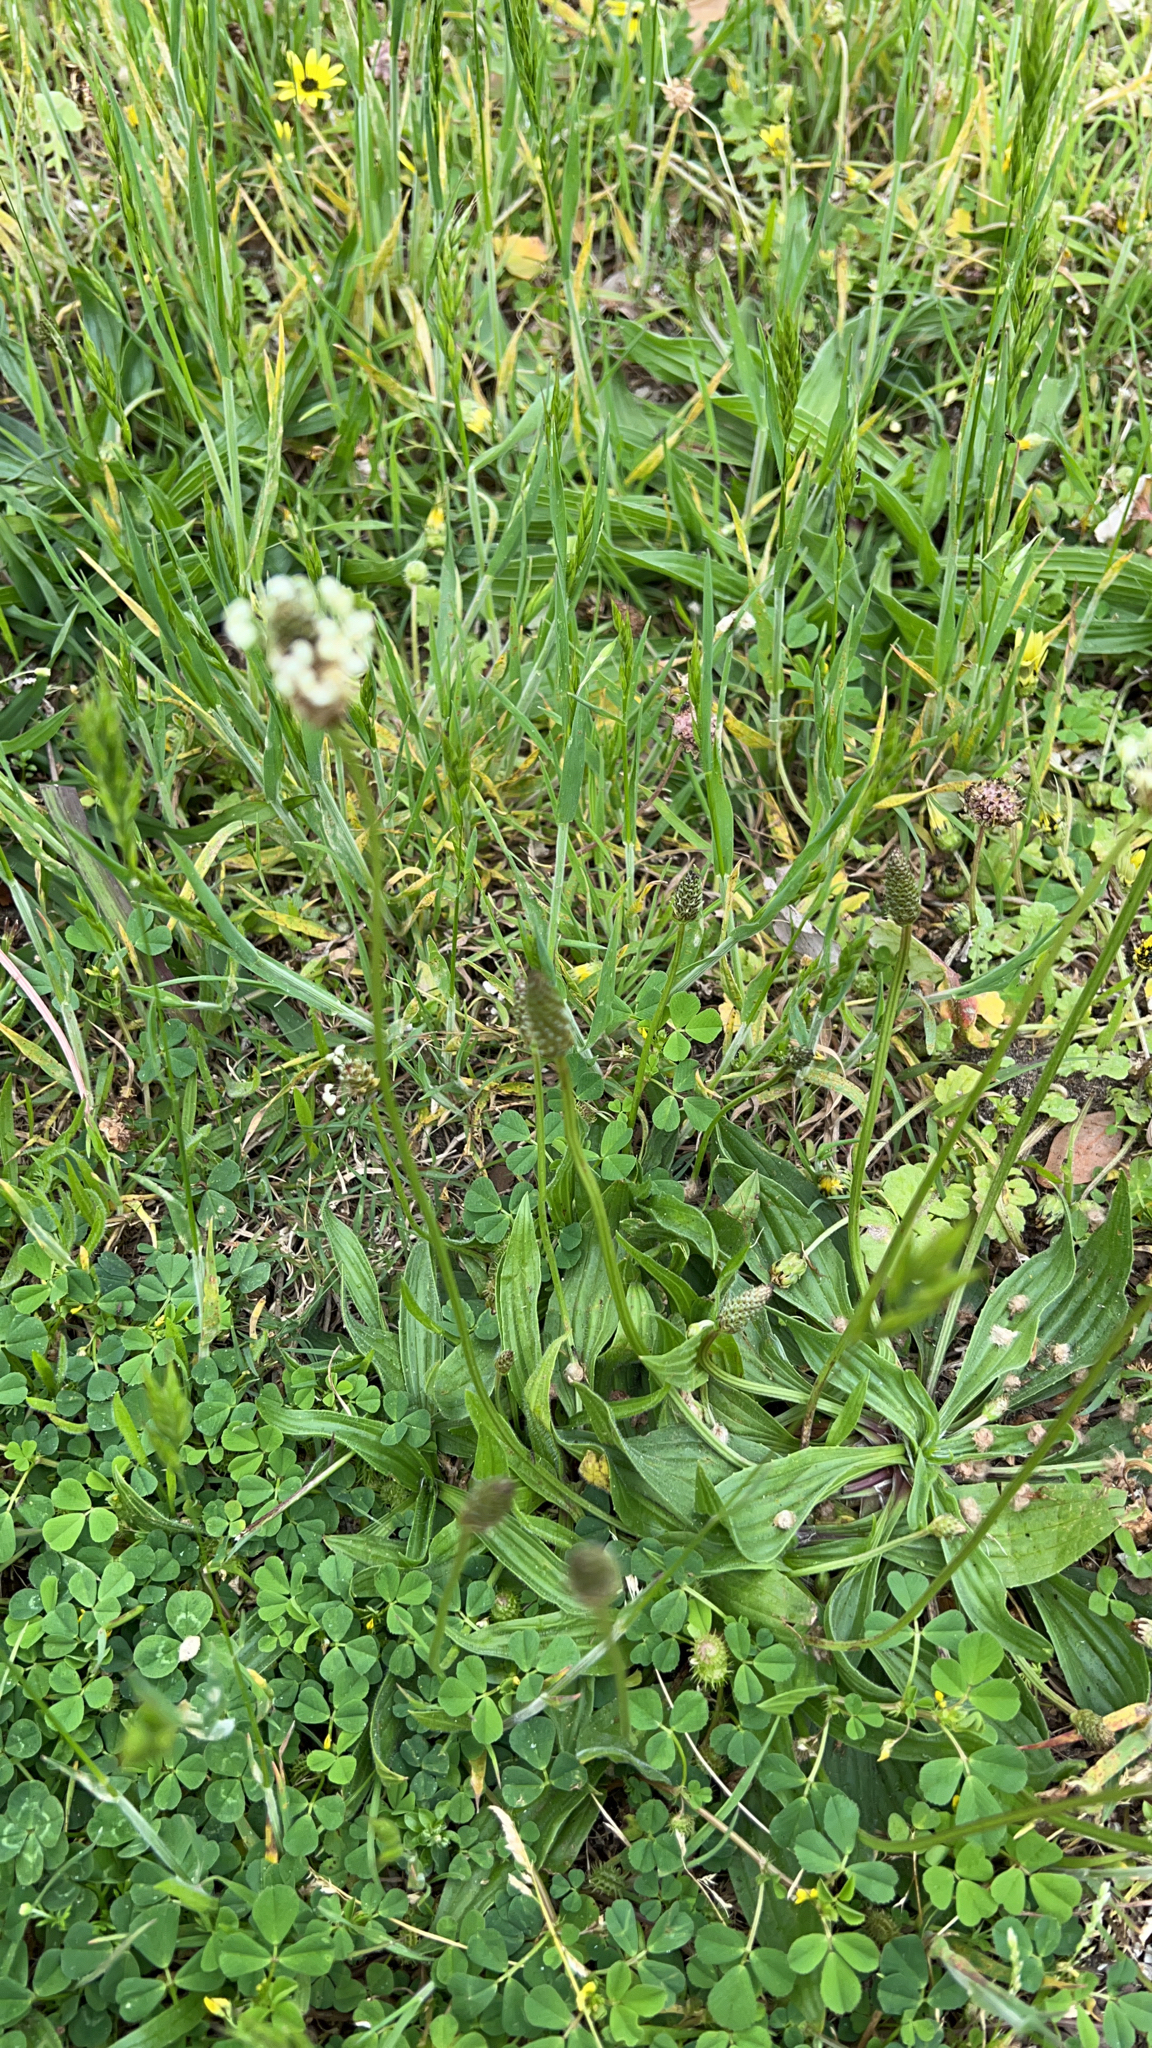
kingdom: Plantae
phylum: Tracheophyta
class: Magnoliopsida
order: Lamiales
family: Plantaginaceae
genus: Plantago
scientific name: Plantago lanceolata
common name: Ribwort plantain
